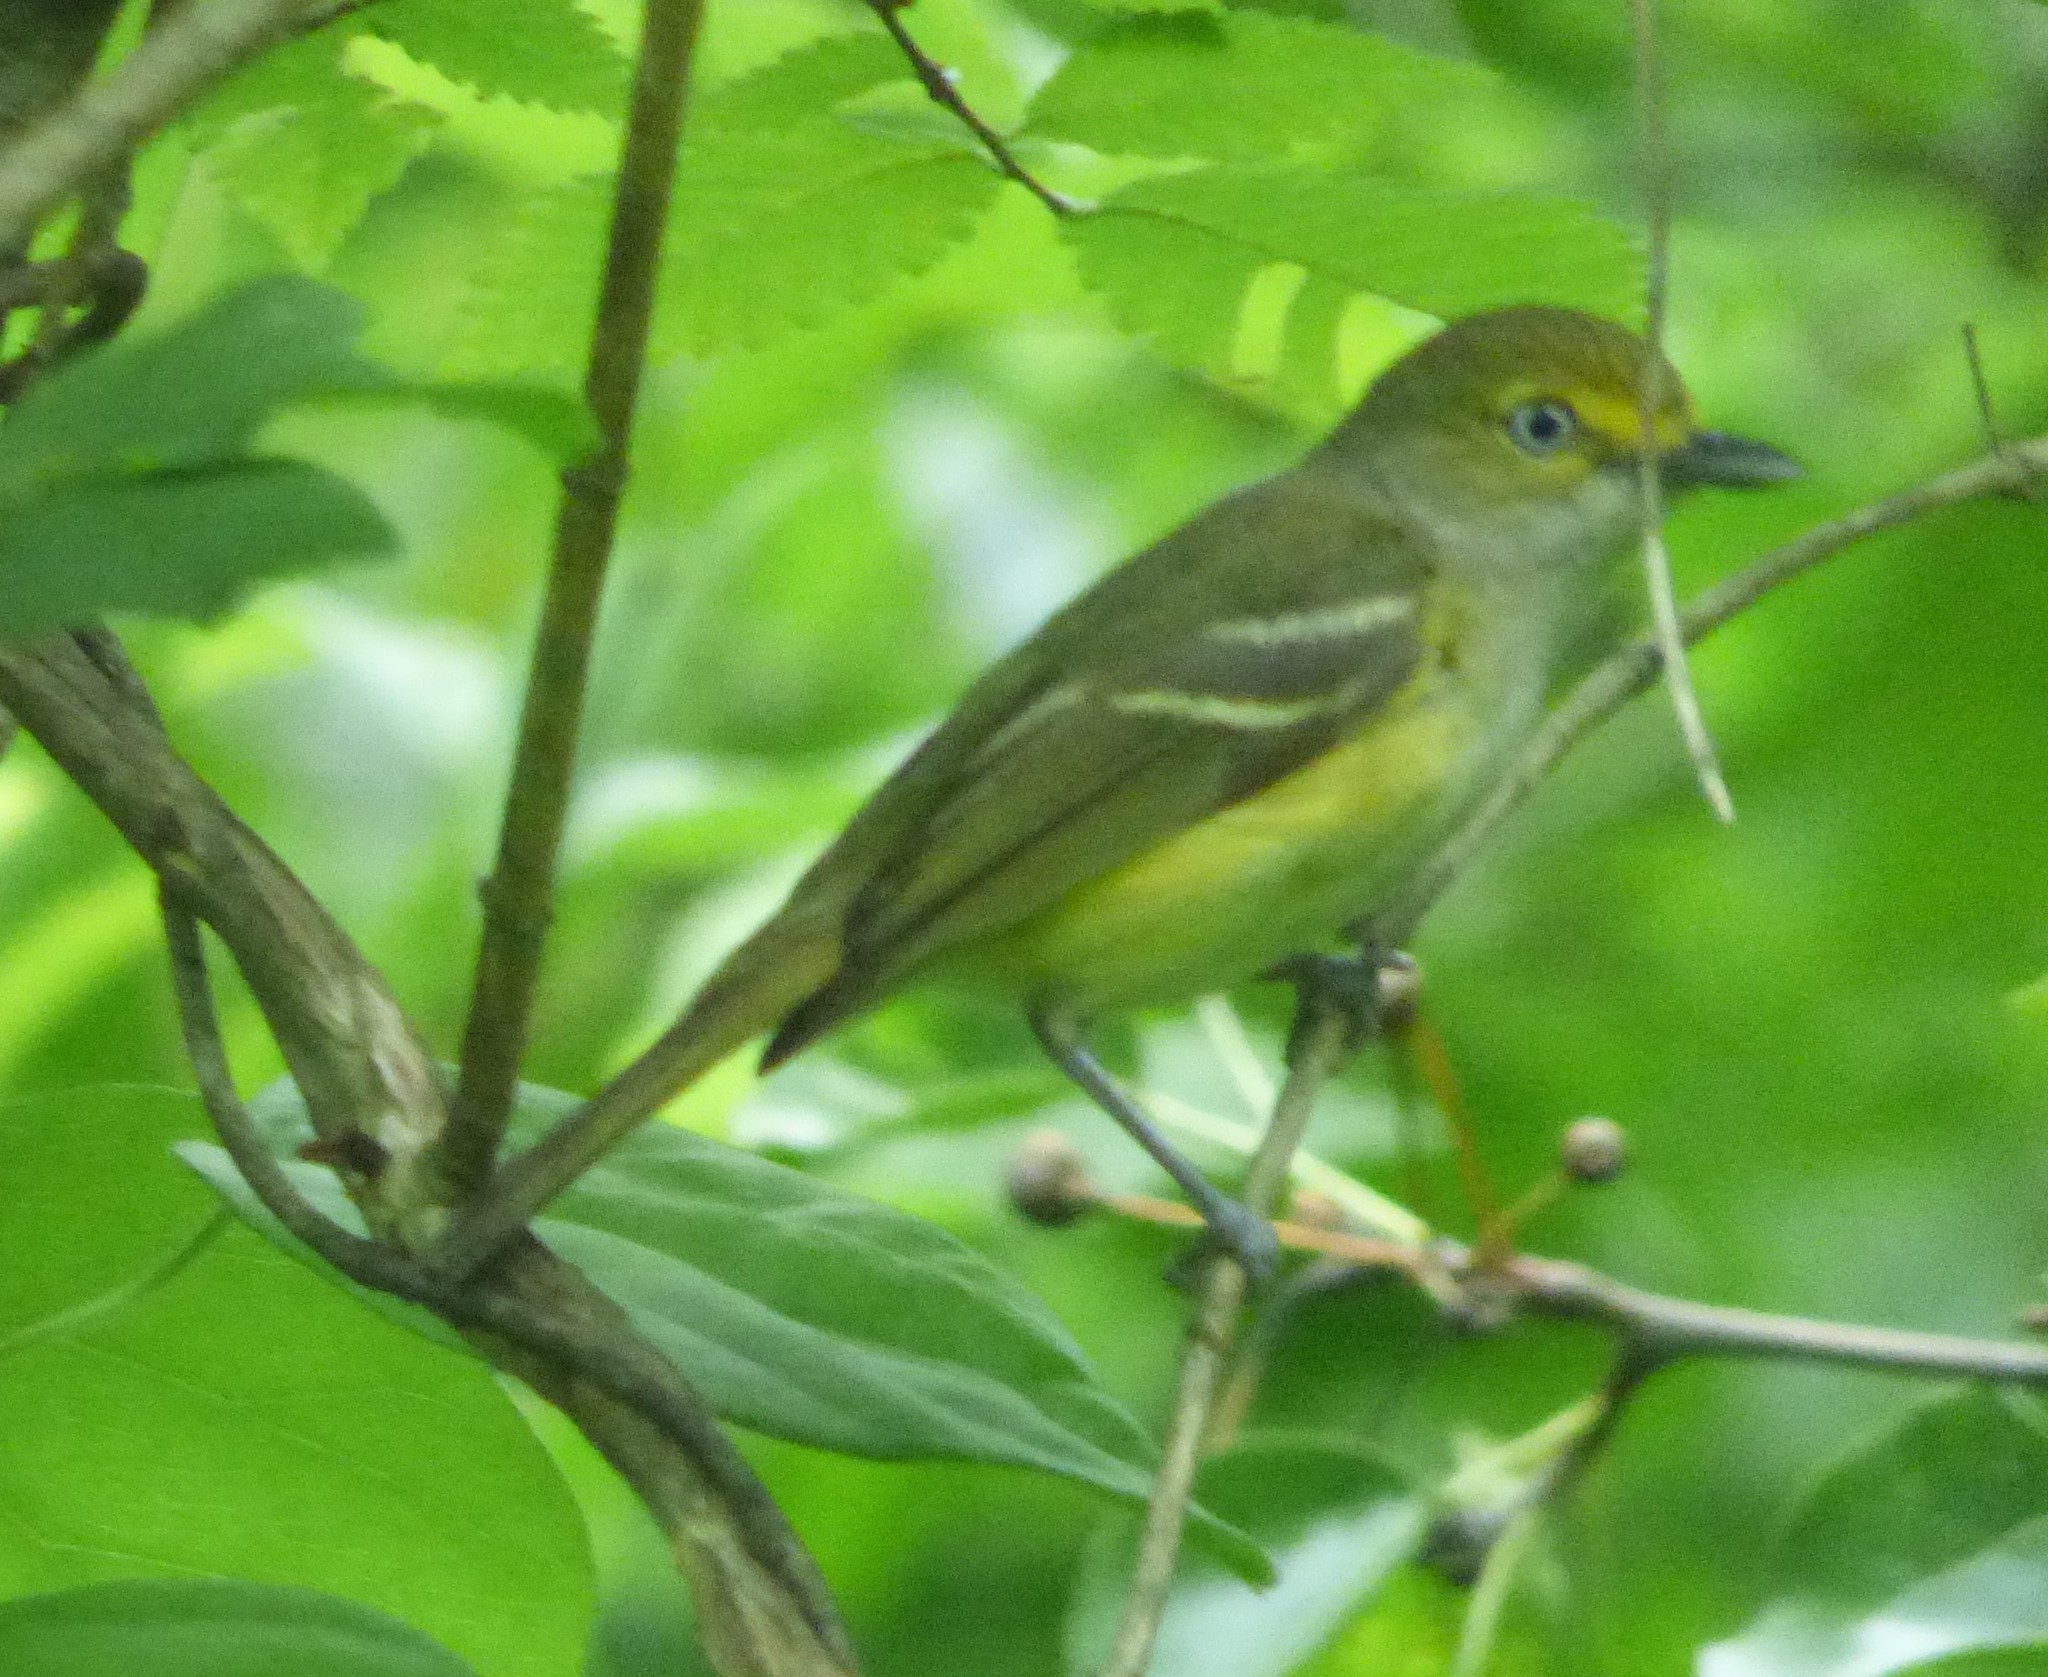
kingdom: Animalia
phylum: Chordata
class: Aves
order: Passeriformes
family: Vireonidae
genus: Vireo
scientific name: Vireo griseus
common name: White-eyed vireo
